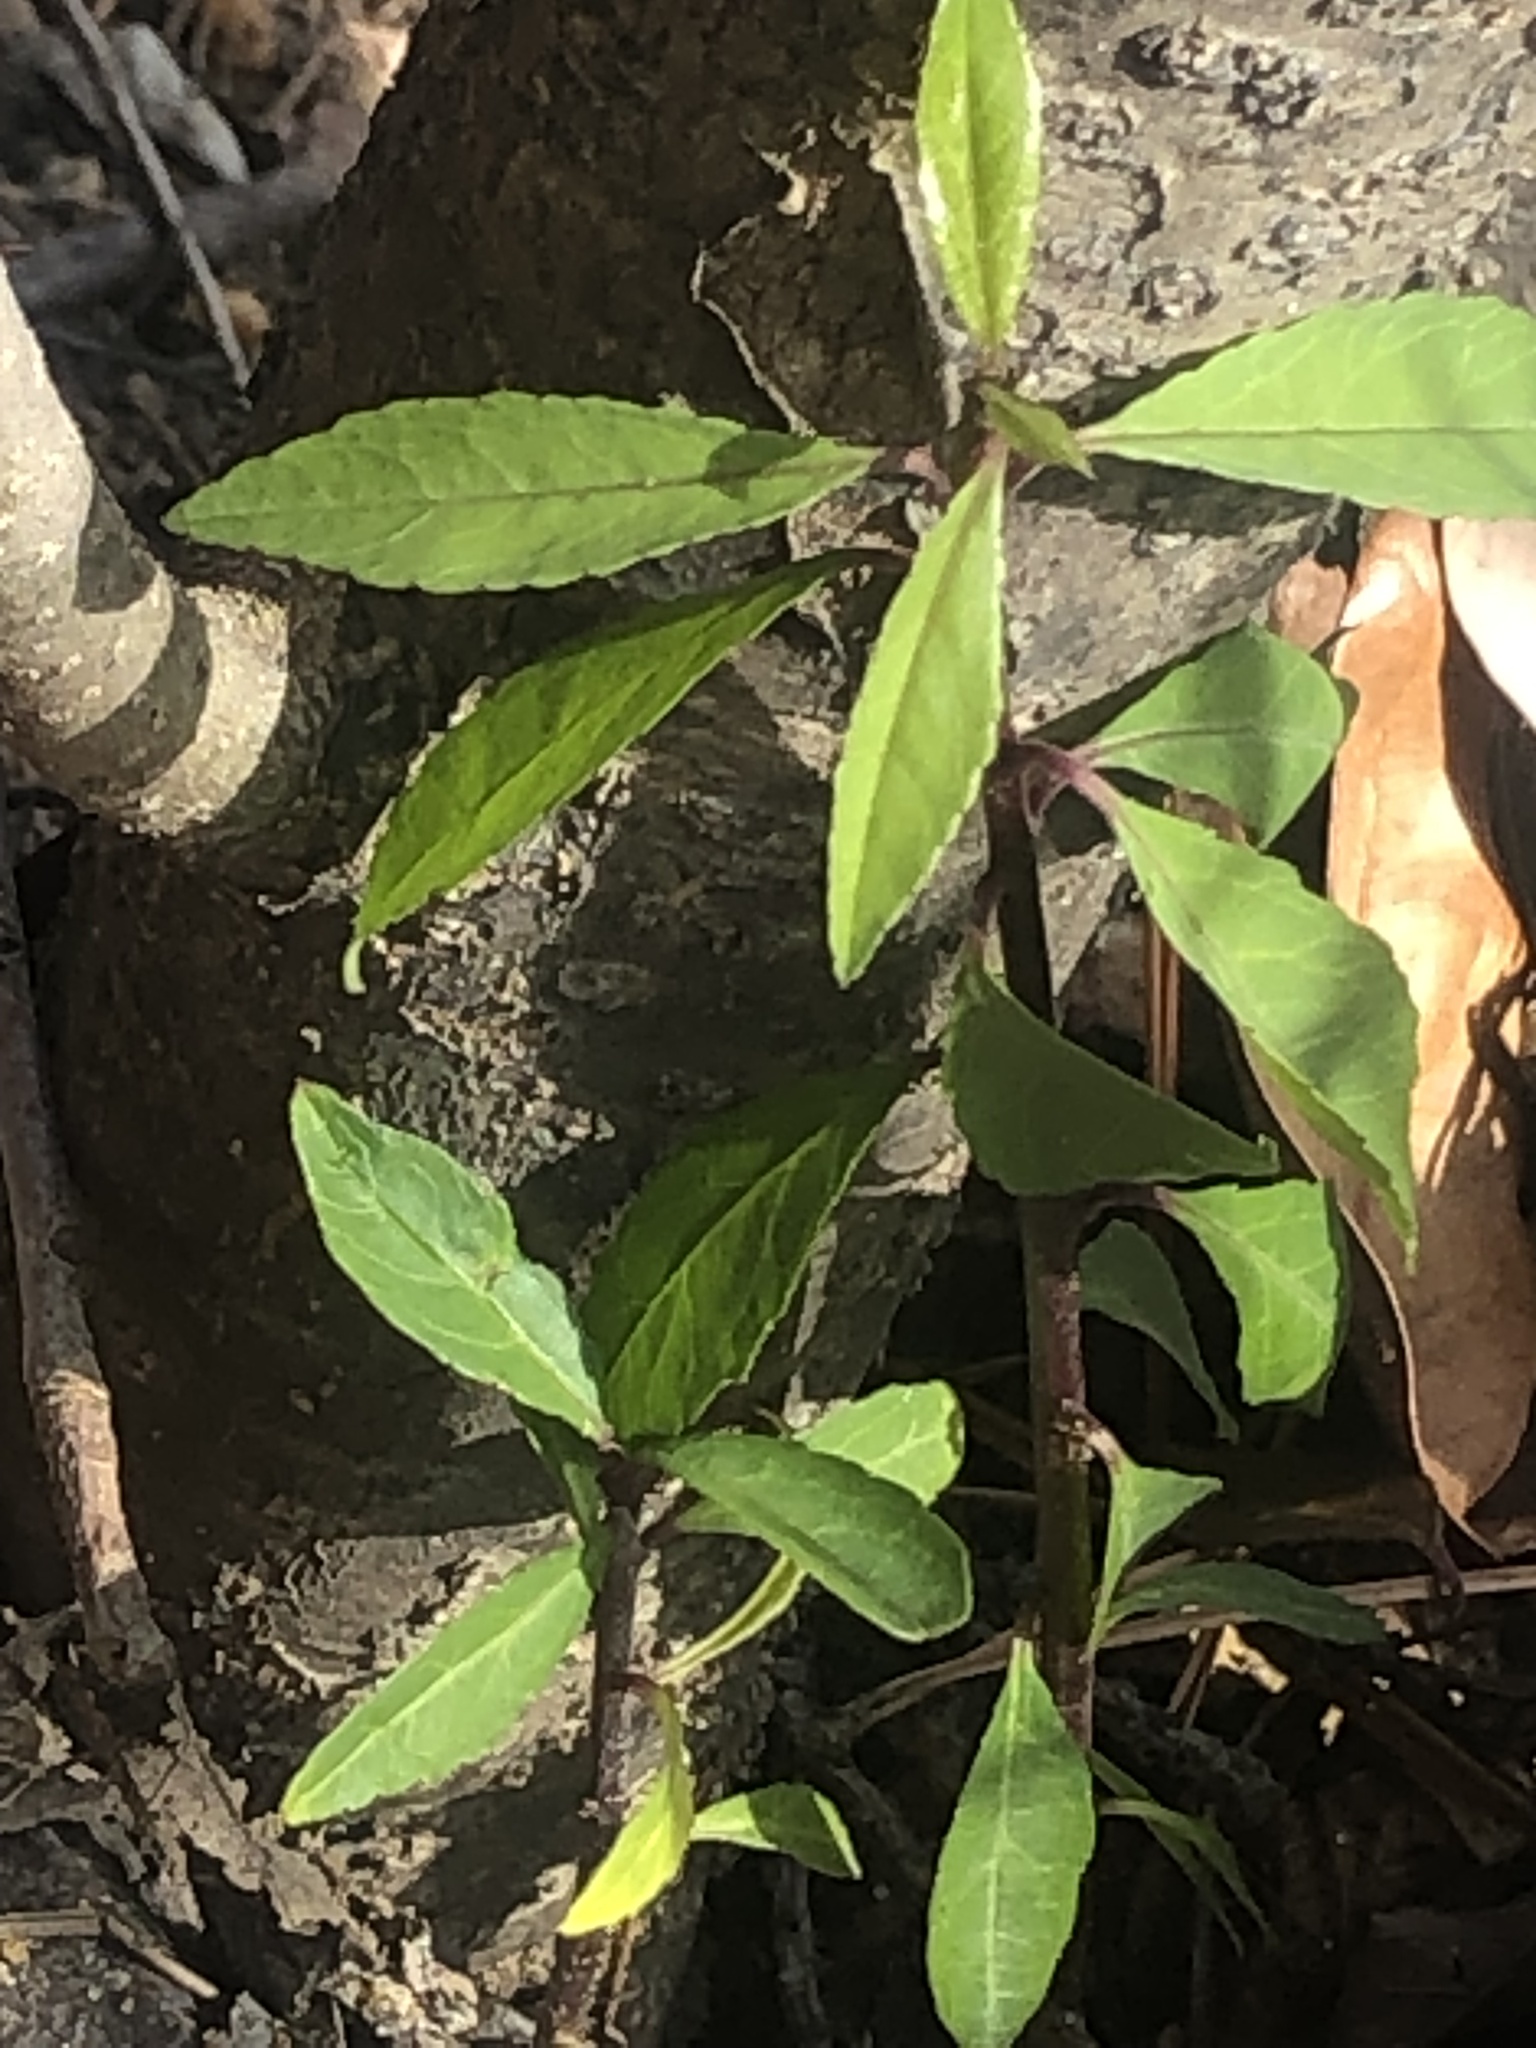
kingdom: Plantae
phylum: Tracheophyta
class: Magnoliopsida
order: Aquifoliales
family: Aquifoliaceae
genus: Ilex
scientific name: Ilex decidua
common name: Possum-haw
